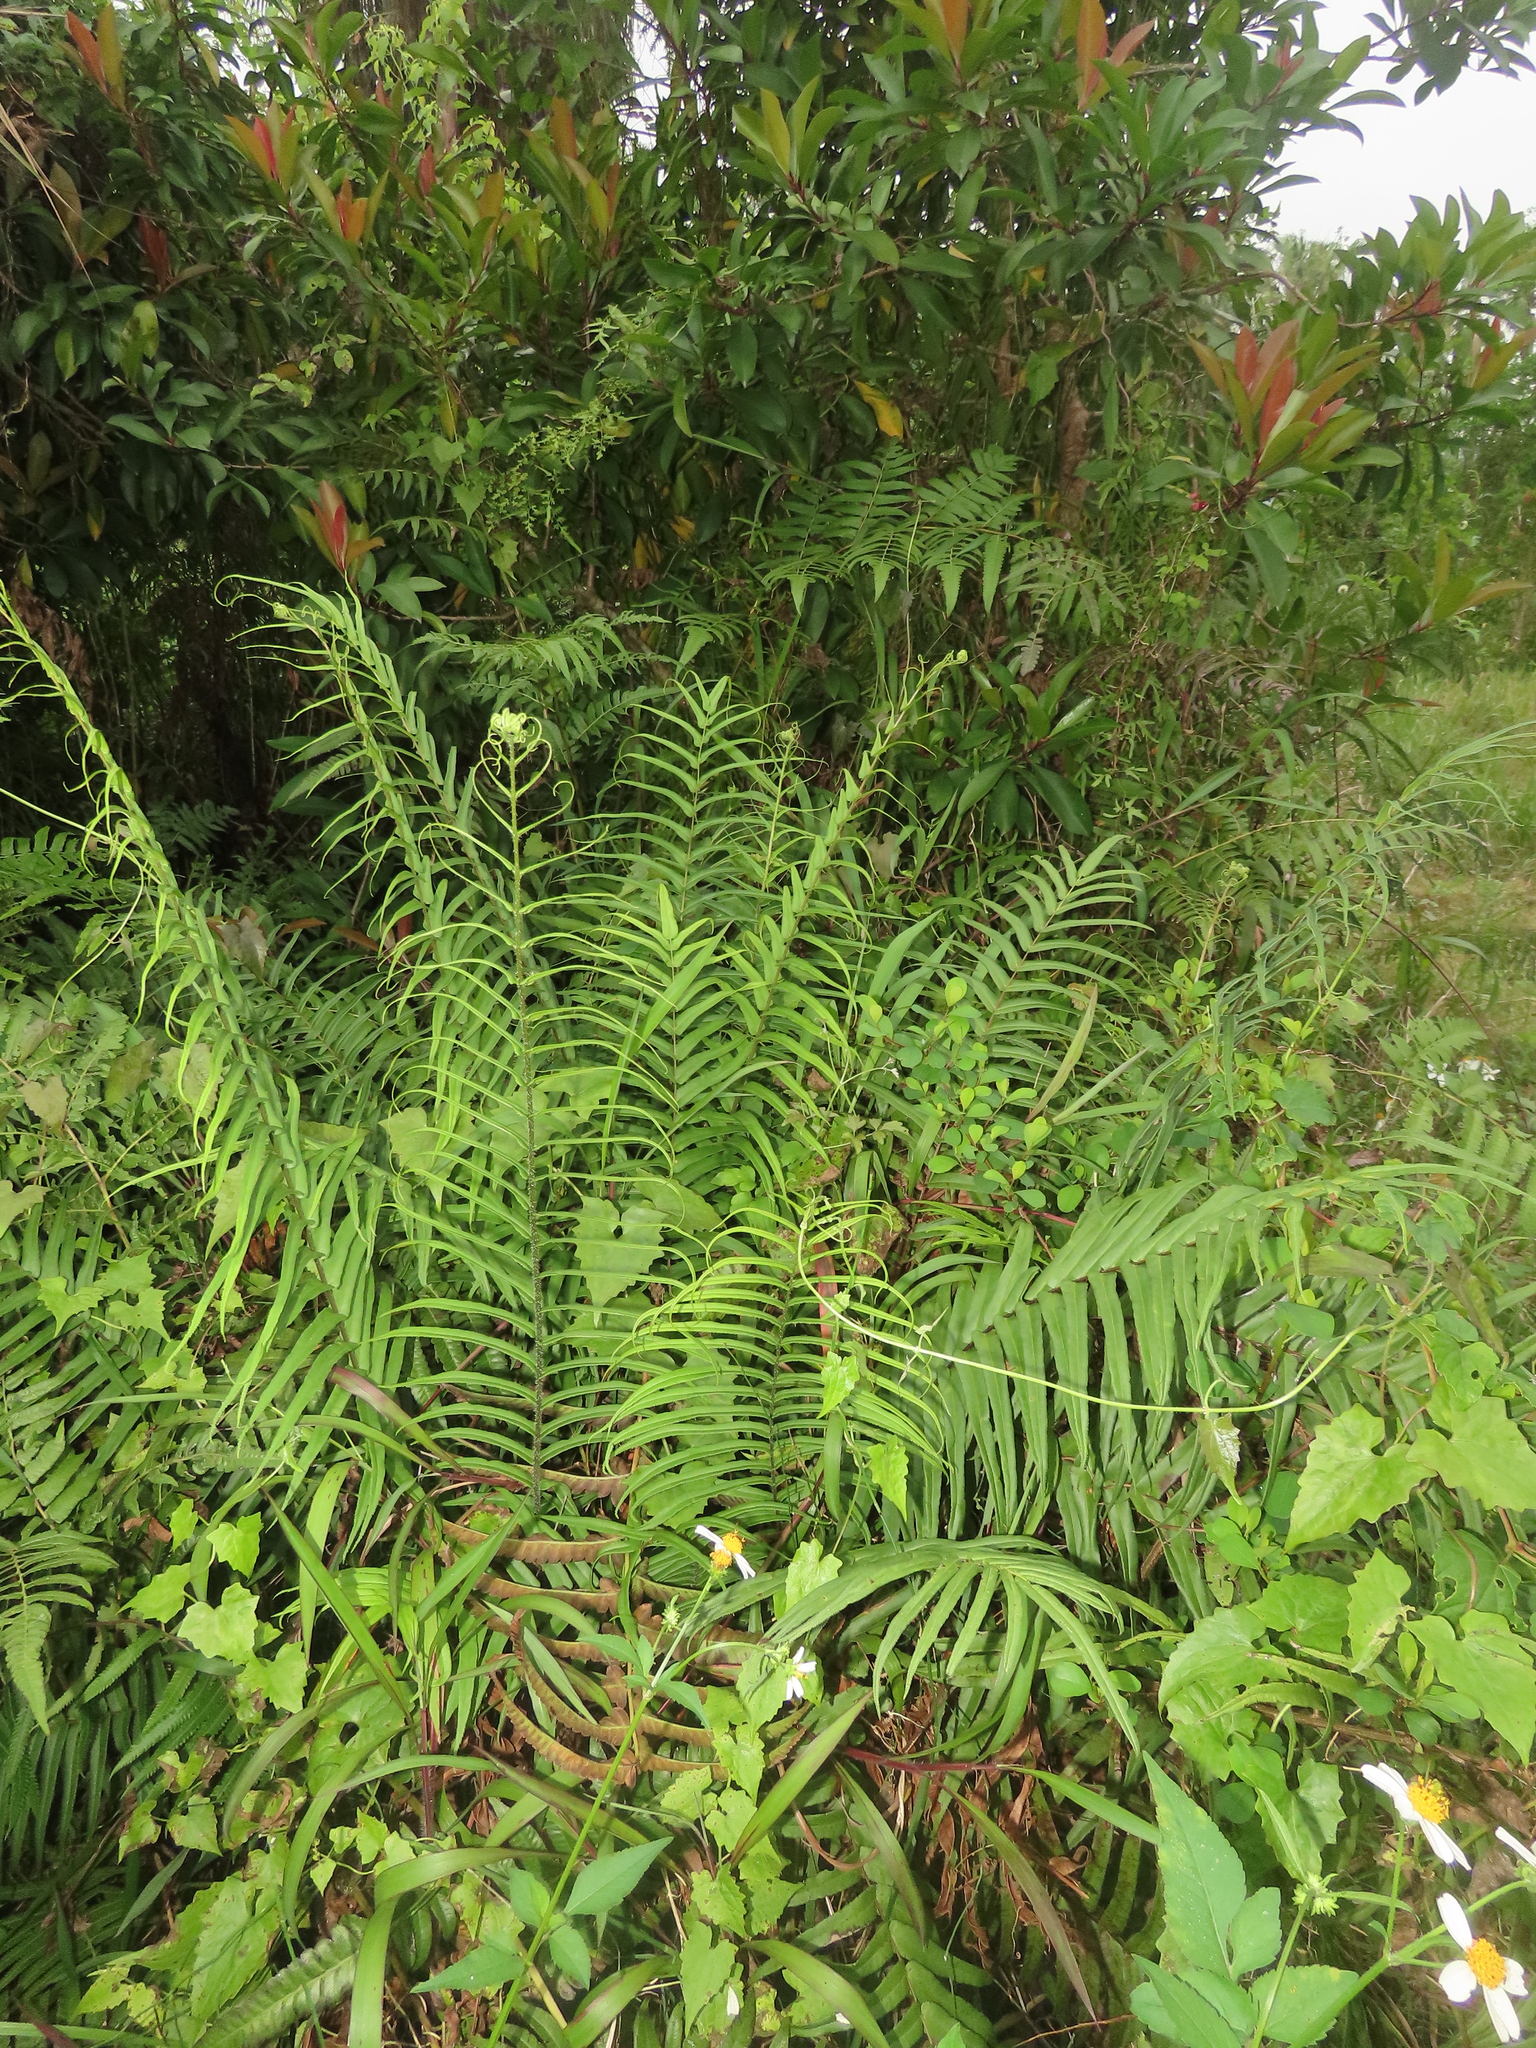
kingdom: Plantae
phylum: Tracheophyta
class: Polypodiopsida
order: Polypodiales
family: Pteridaceae
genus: Pteris
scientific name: Pteris vittata
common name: Ladder brake
